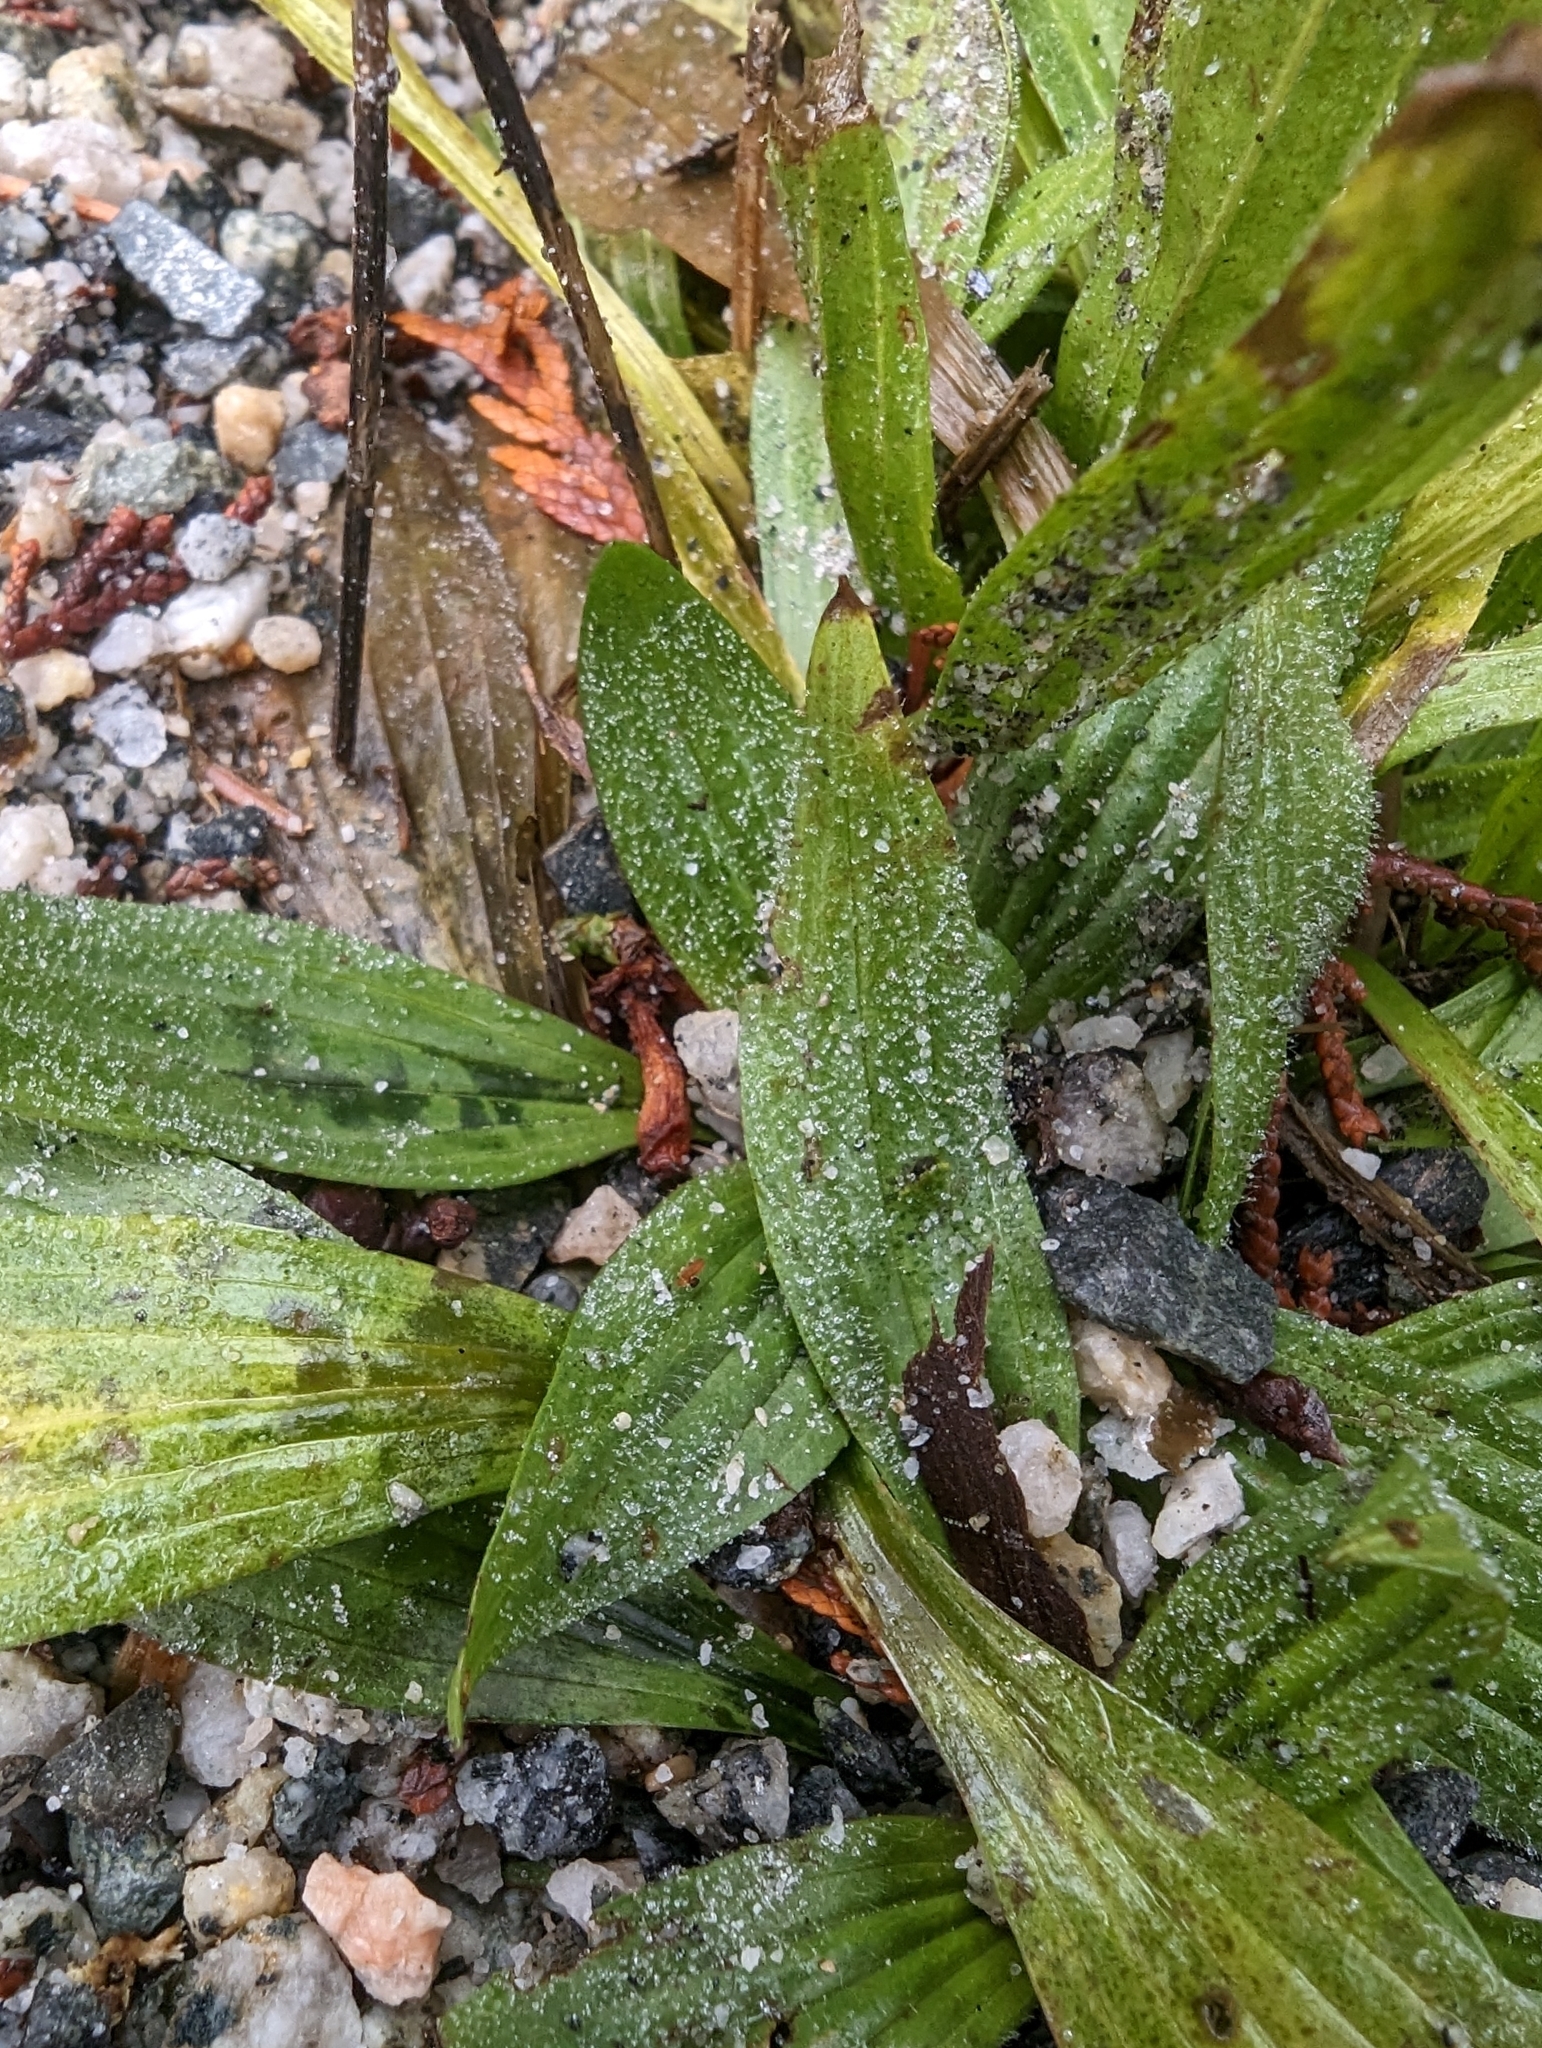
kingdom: Plantae
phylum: Tracheophyta
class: Magnoliopsida
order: Lamiales
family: Plantaginaceae
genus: Plantago
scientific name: Plantago lanceolata
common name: Ribwort plantain
